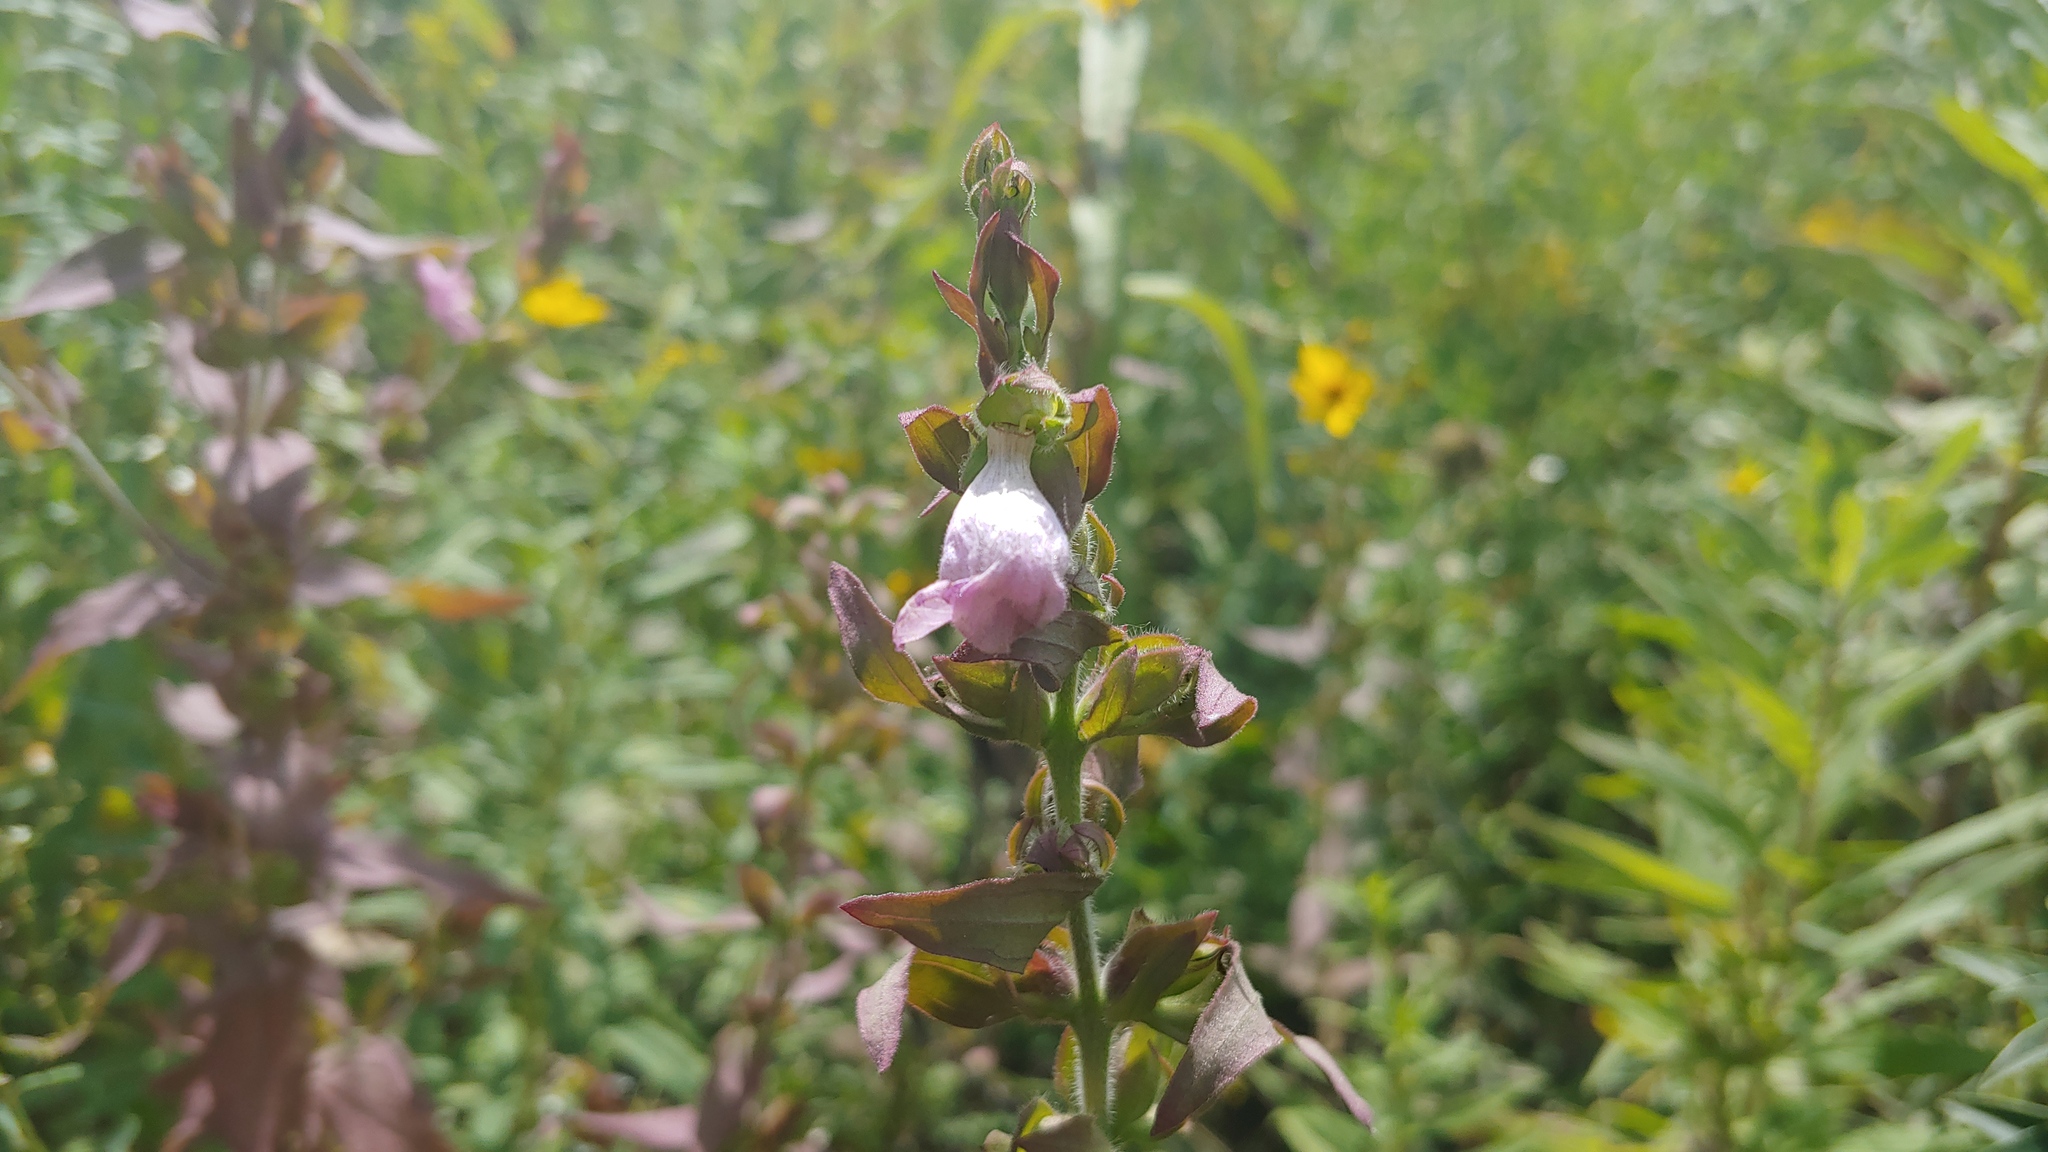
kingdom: Plantae
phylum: Tracheophyta
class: Magnoliopsida
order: Lamiales
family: Orobanchaceae
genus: Agalinis
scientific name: Agalinis auriculata
